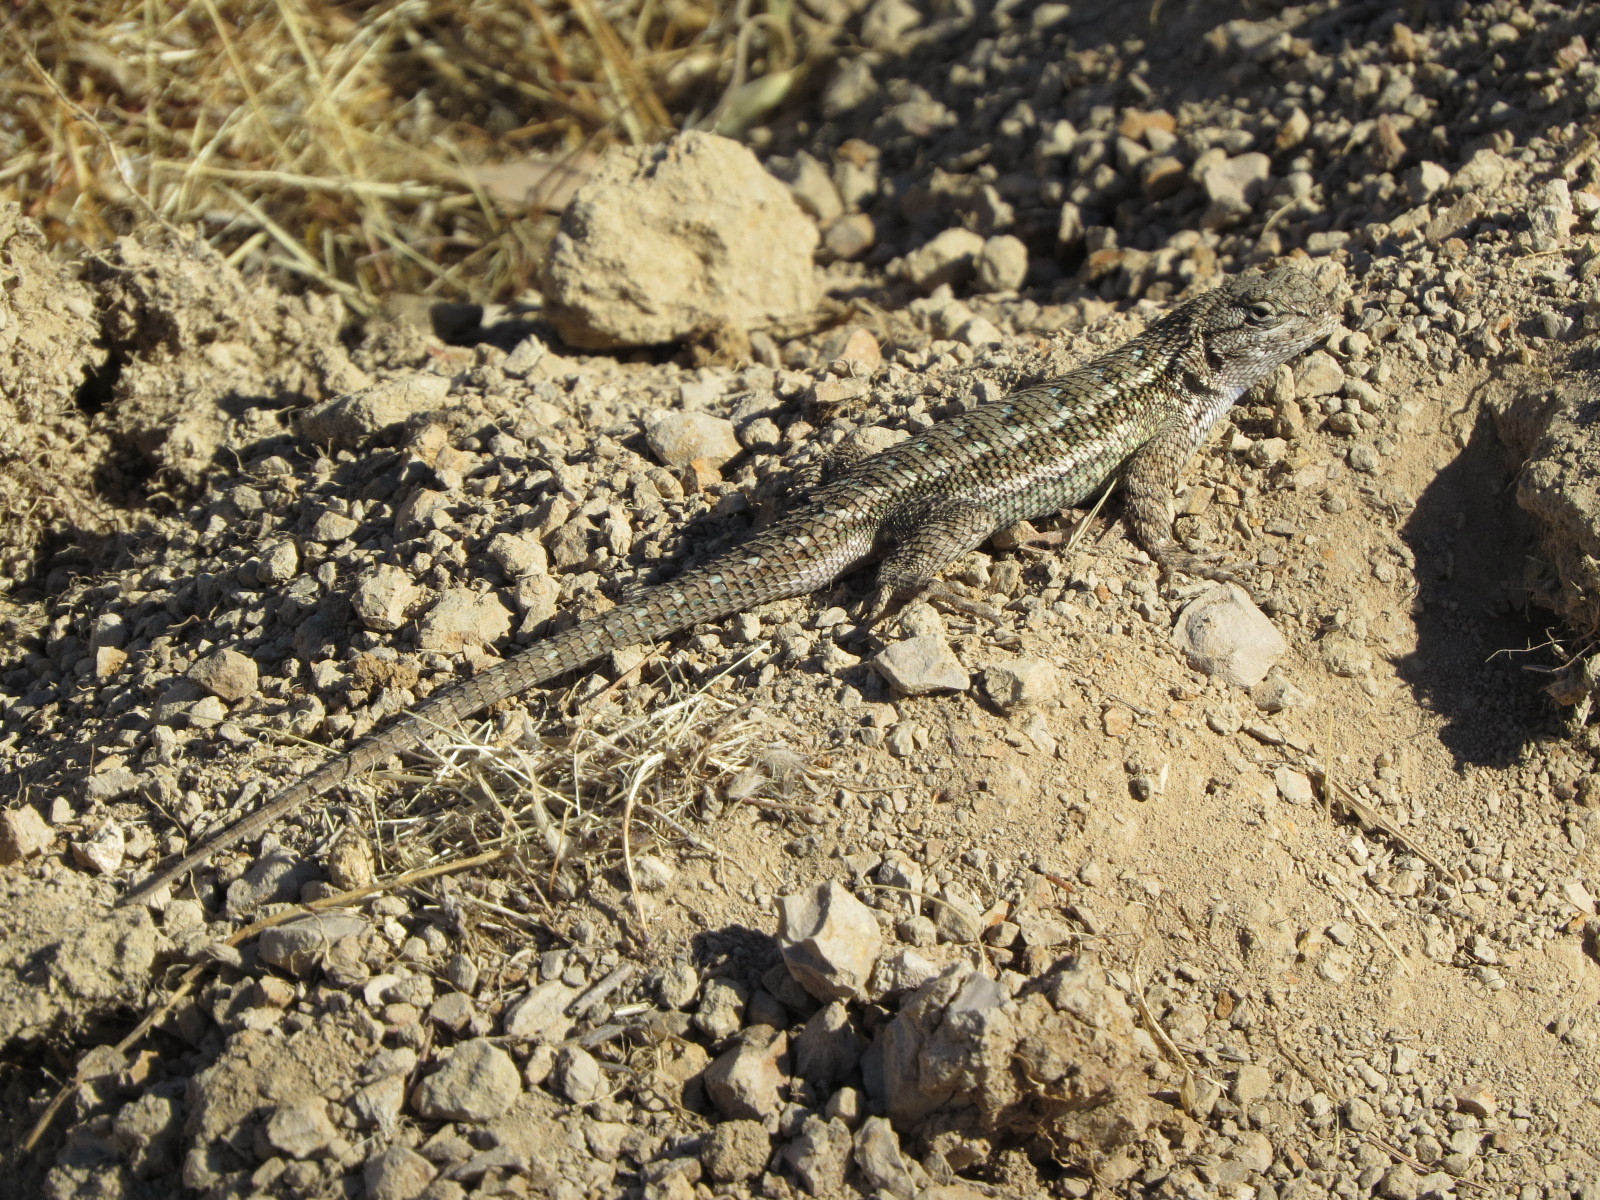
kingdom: Animalia
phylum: Chordata
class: Squamata
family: Phrynosomatidae
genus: Sceloporus
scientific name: Sceloporus occidentalis
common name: Western fence lizard
